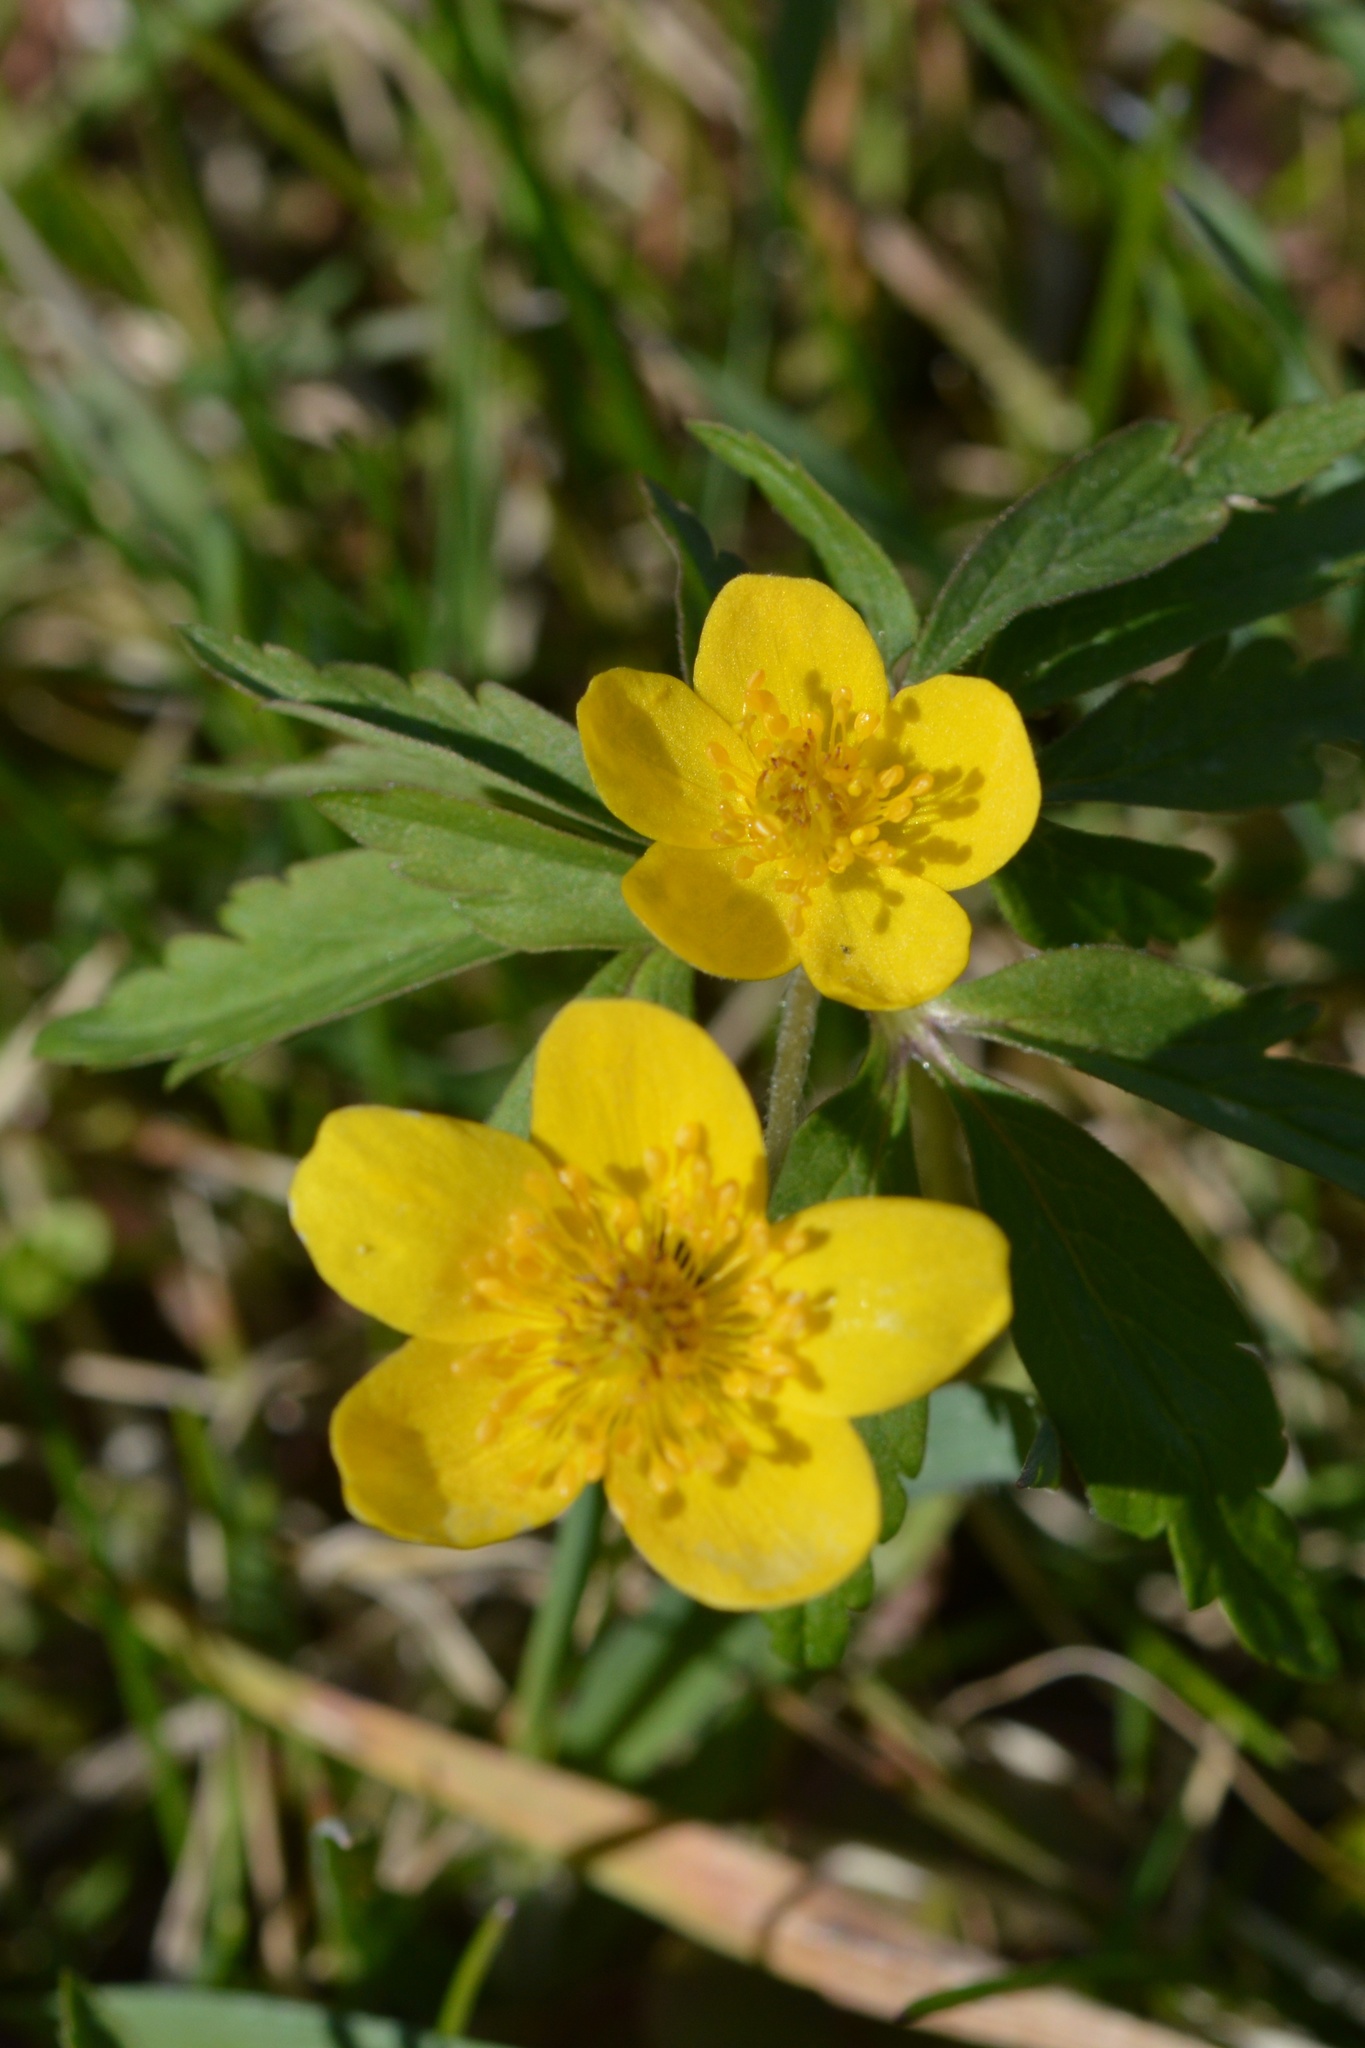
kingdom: Plantae
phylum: Tracheophyta
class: Magnoliopsida
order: Ranunculales
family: Ranunculaceae
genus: Anemone
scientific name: Anemone ranunculoides
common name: Yellow anemone
